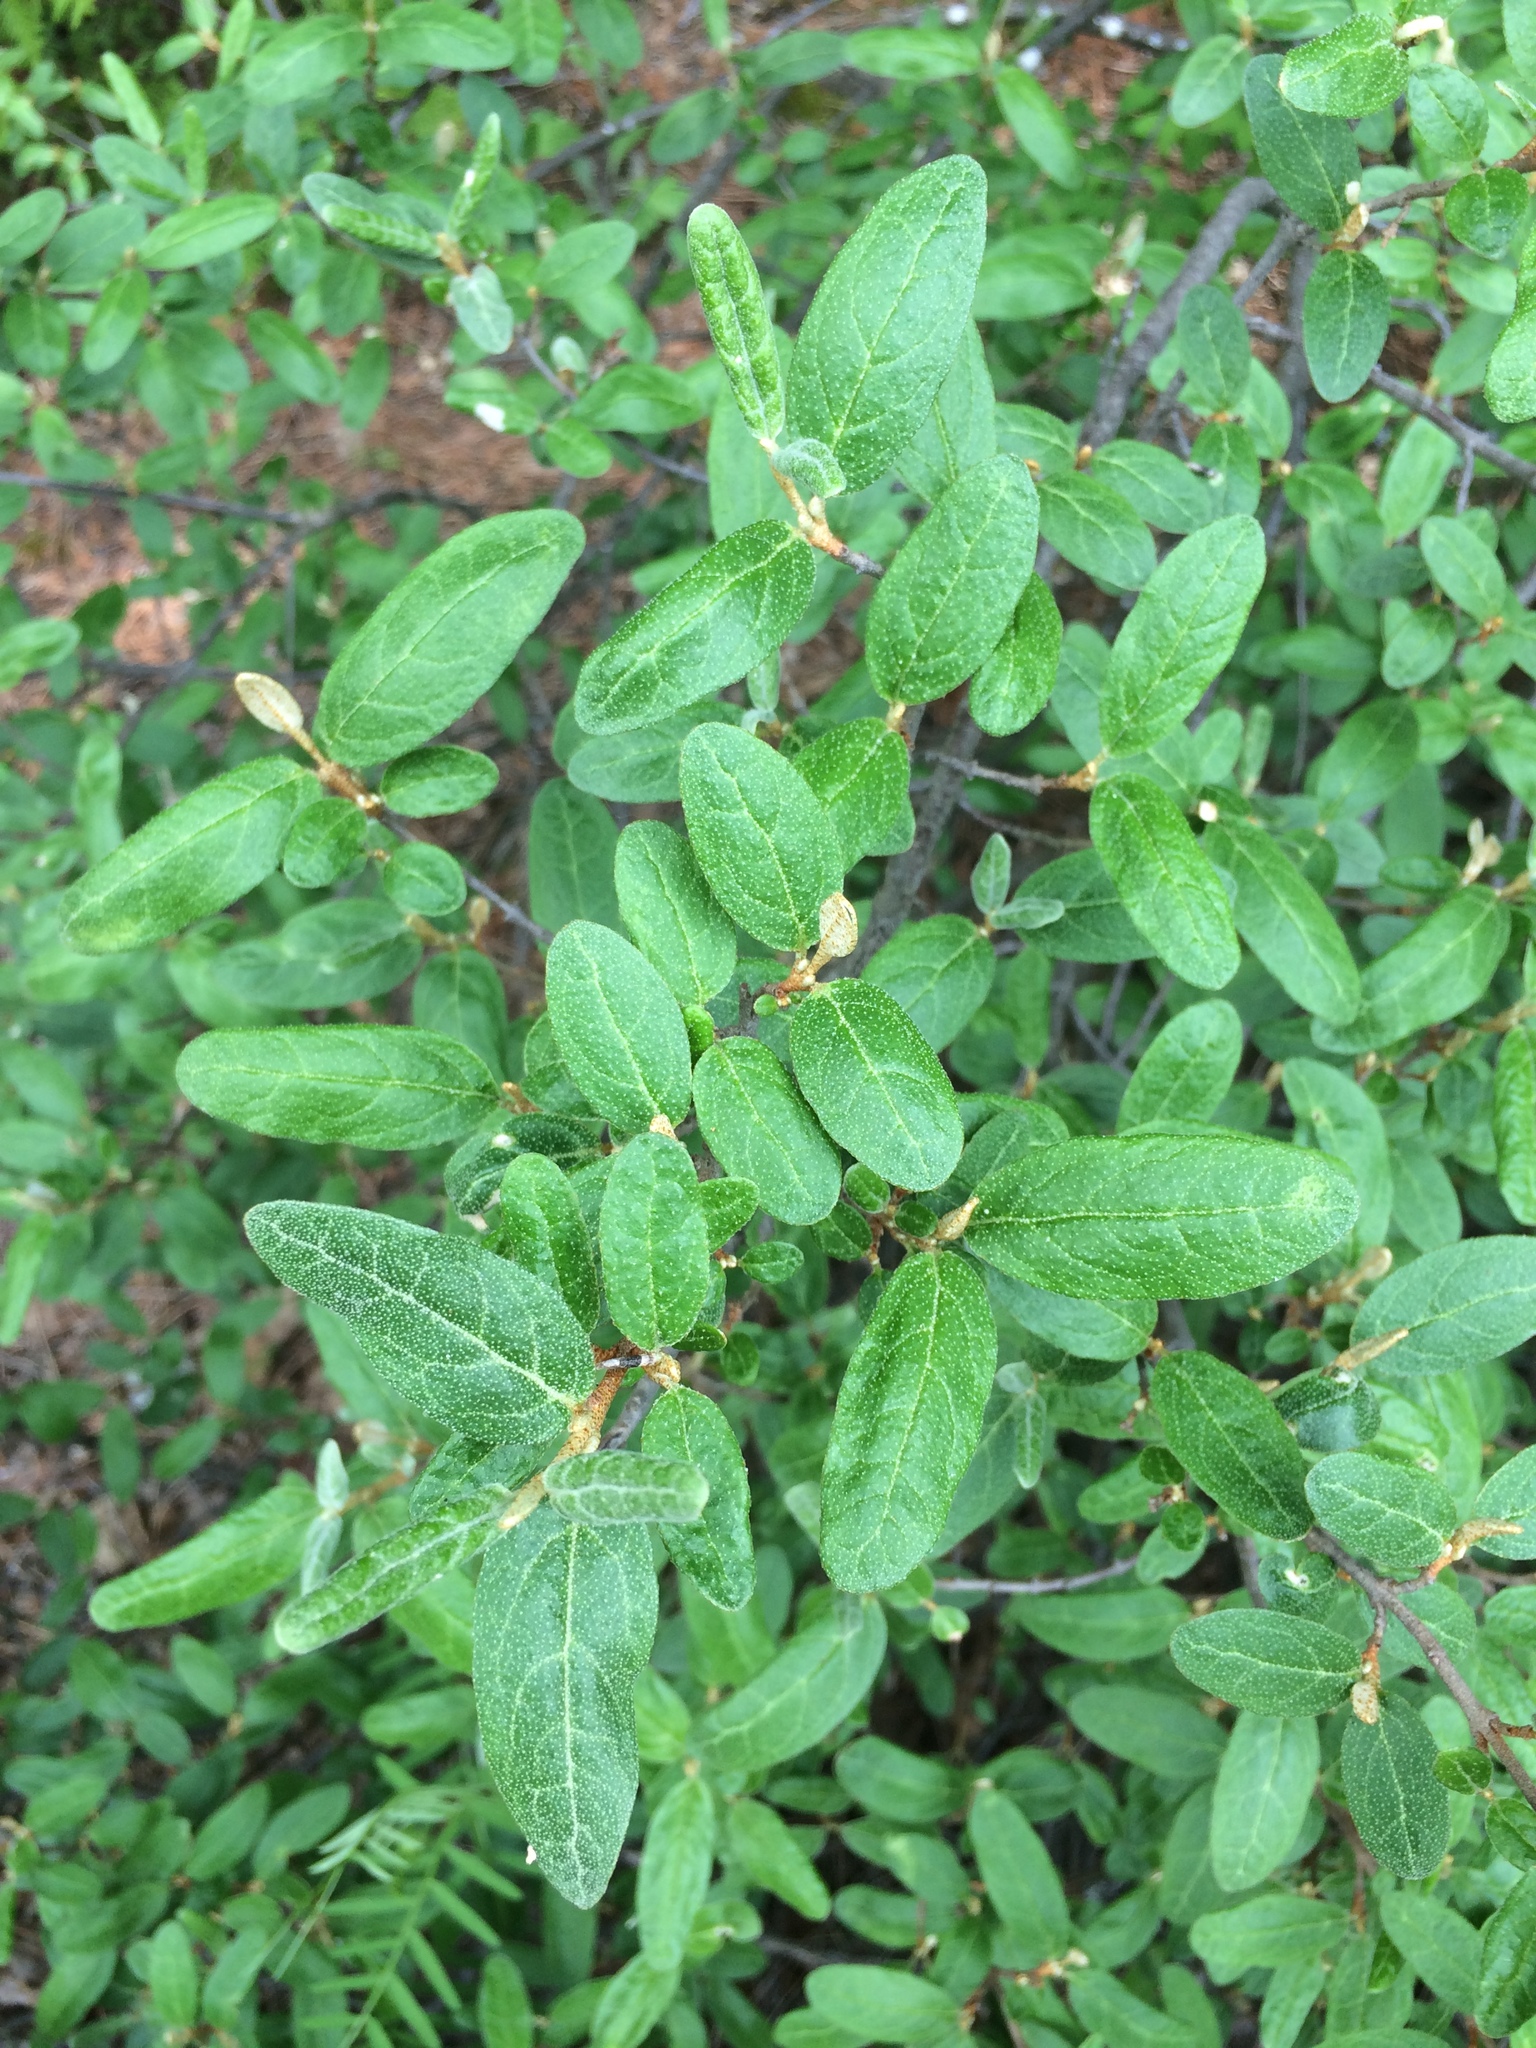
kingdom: Plantae
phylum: Tracheophyta
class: Magnoliopsida
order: Rosales
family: Elaeagnaceae
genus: Shepherdia
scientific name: Shepherdia canadensis
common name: Soapberry
